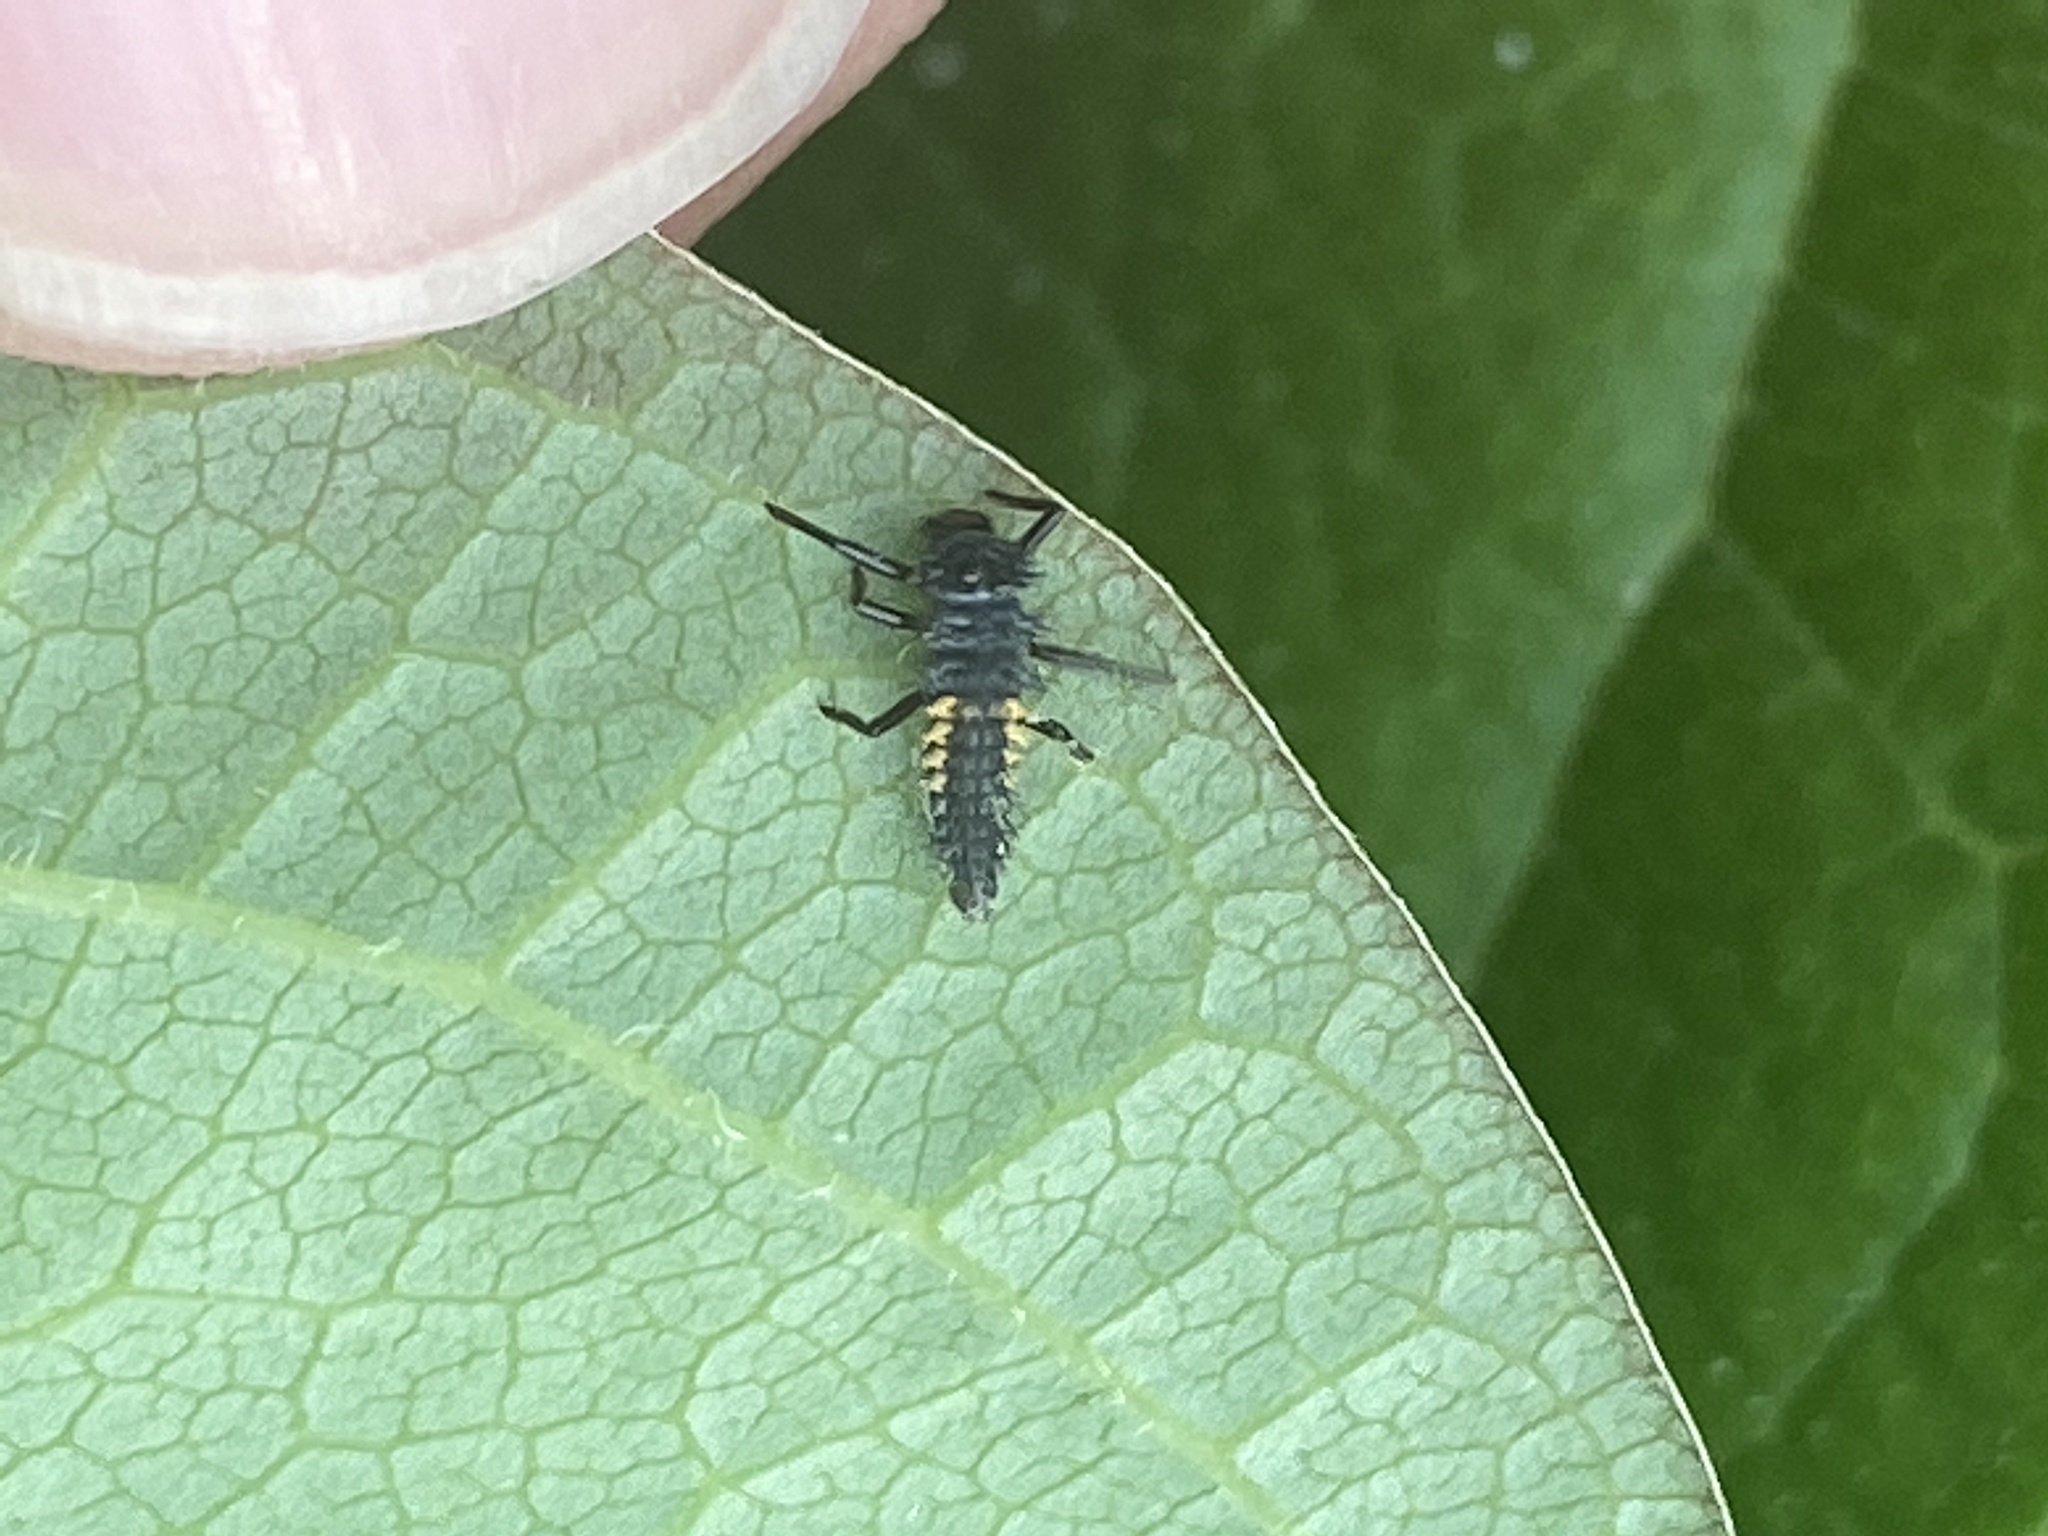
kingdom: Animalia
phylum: Arthropoda
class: Insecta
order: Coleoptera
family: Coccinellidae
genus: Harmonia
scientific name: Harmonia axyridis
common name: Harlequin ladybird
